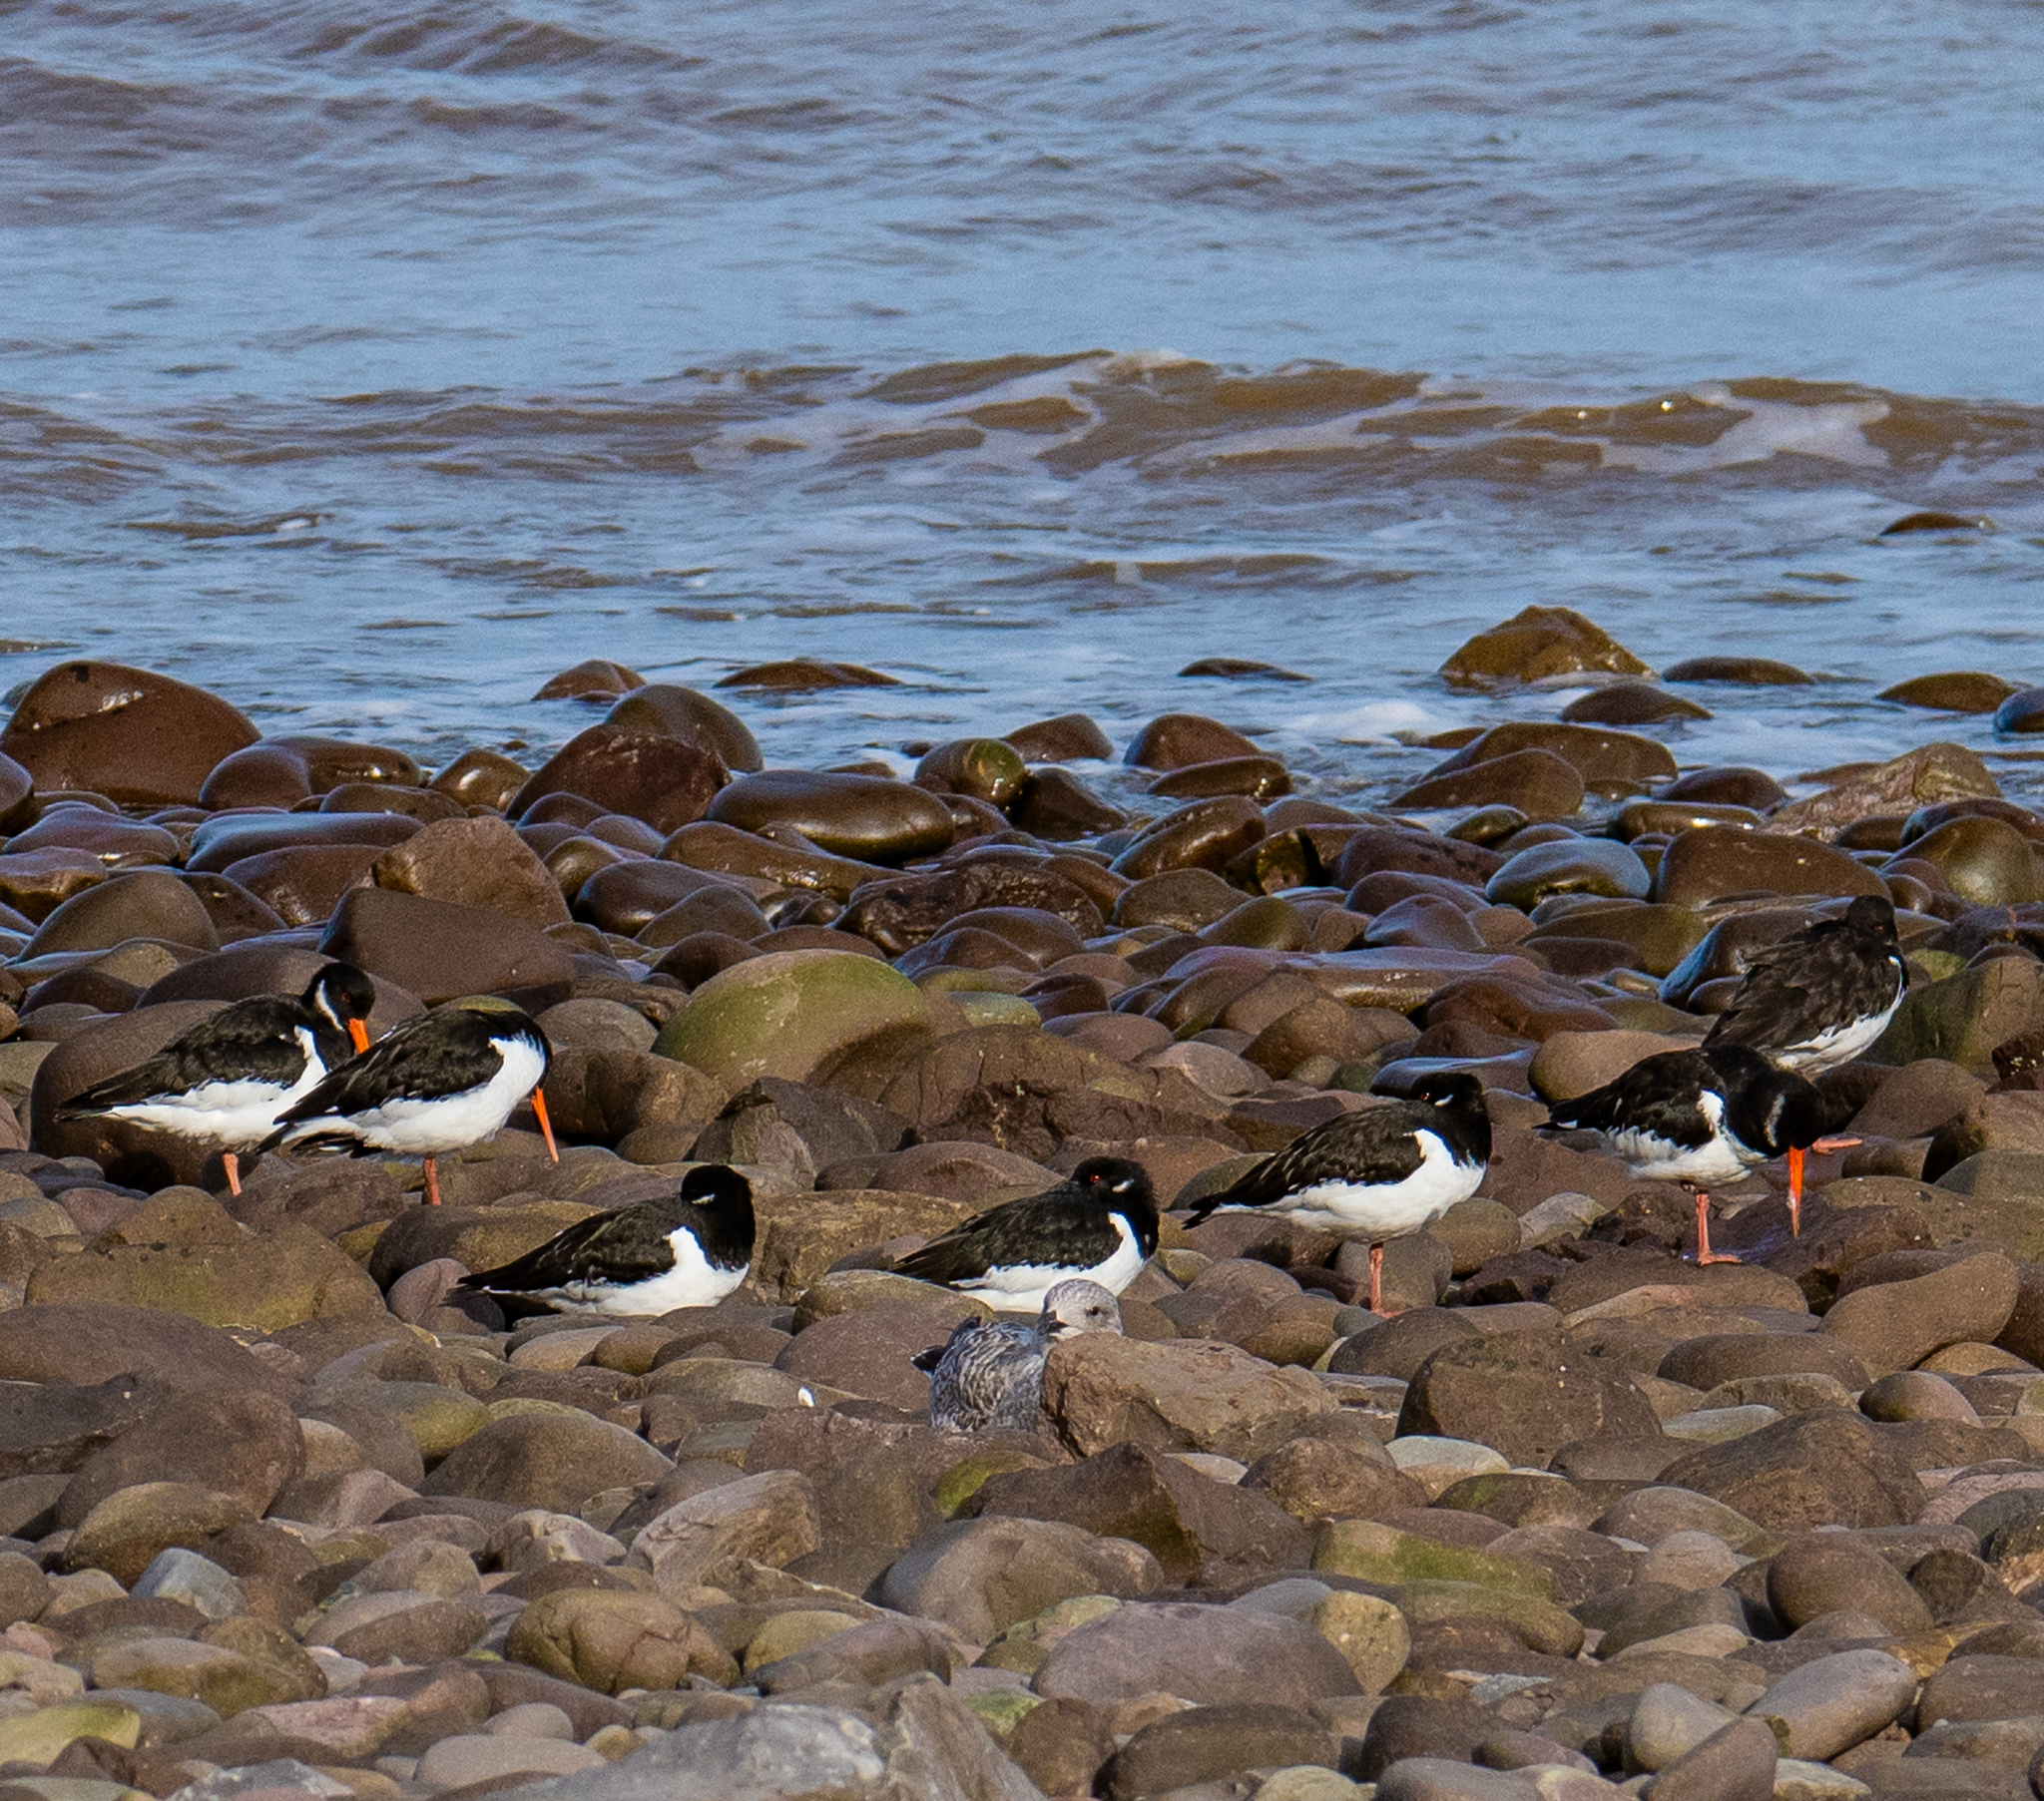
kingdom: Animalia
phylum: Chordata
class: Aves
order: Charadriiformes
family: Haematopodidae
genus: Haematopus
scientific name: Haematopus ostralegus
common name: Eurasian oystercatcher
